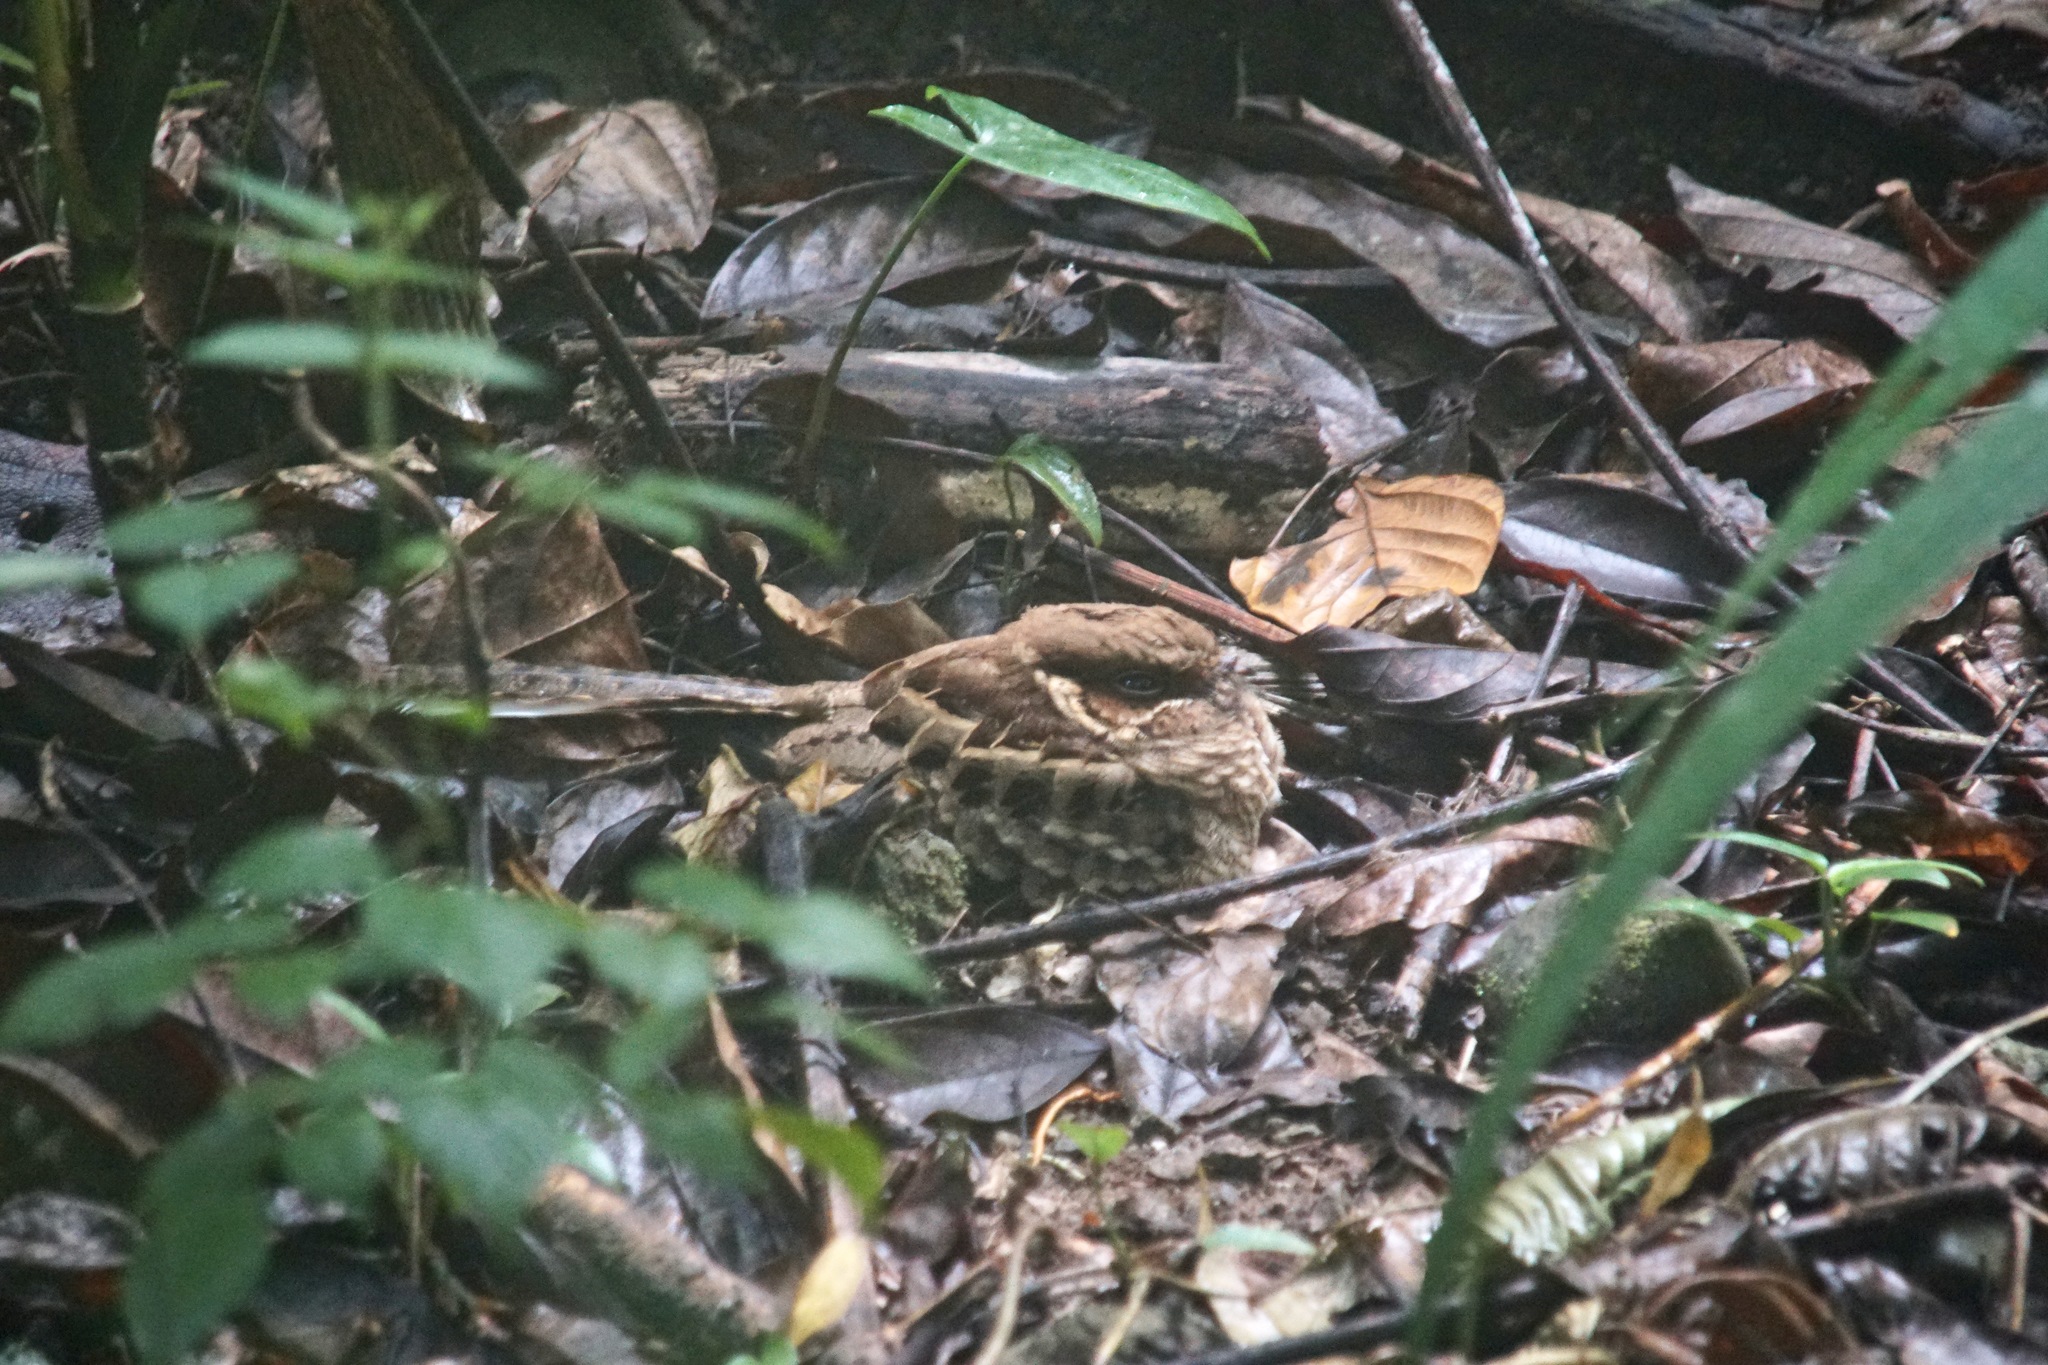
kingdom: Animalia
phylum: Chordata
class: Aves
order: Caprimulgiformes
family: Caprimulgidae
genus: Nyctidromus
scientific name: Nyctidromus albicollis
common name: Pauraque
